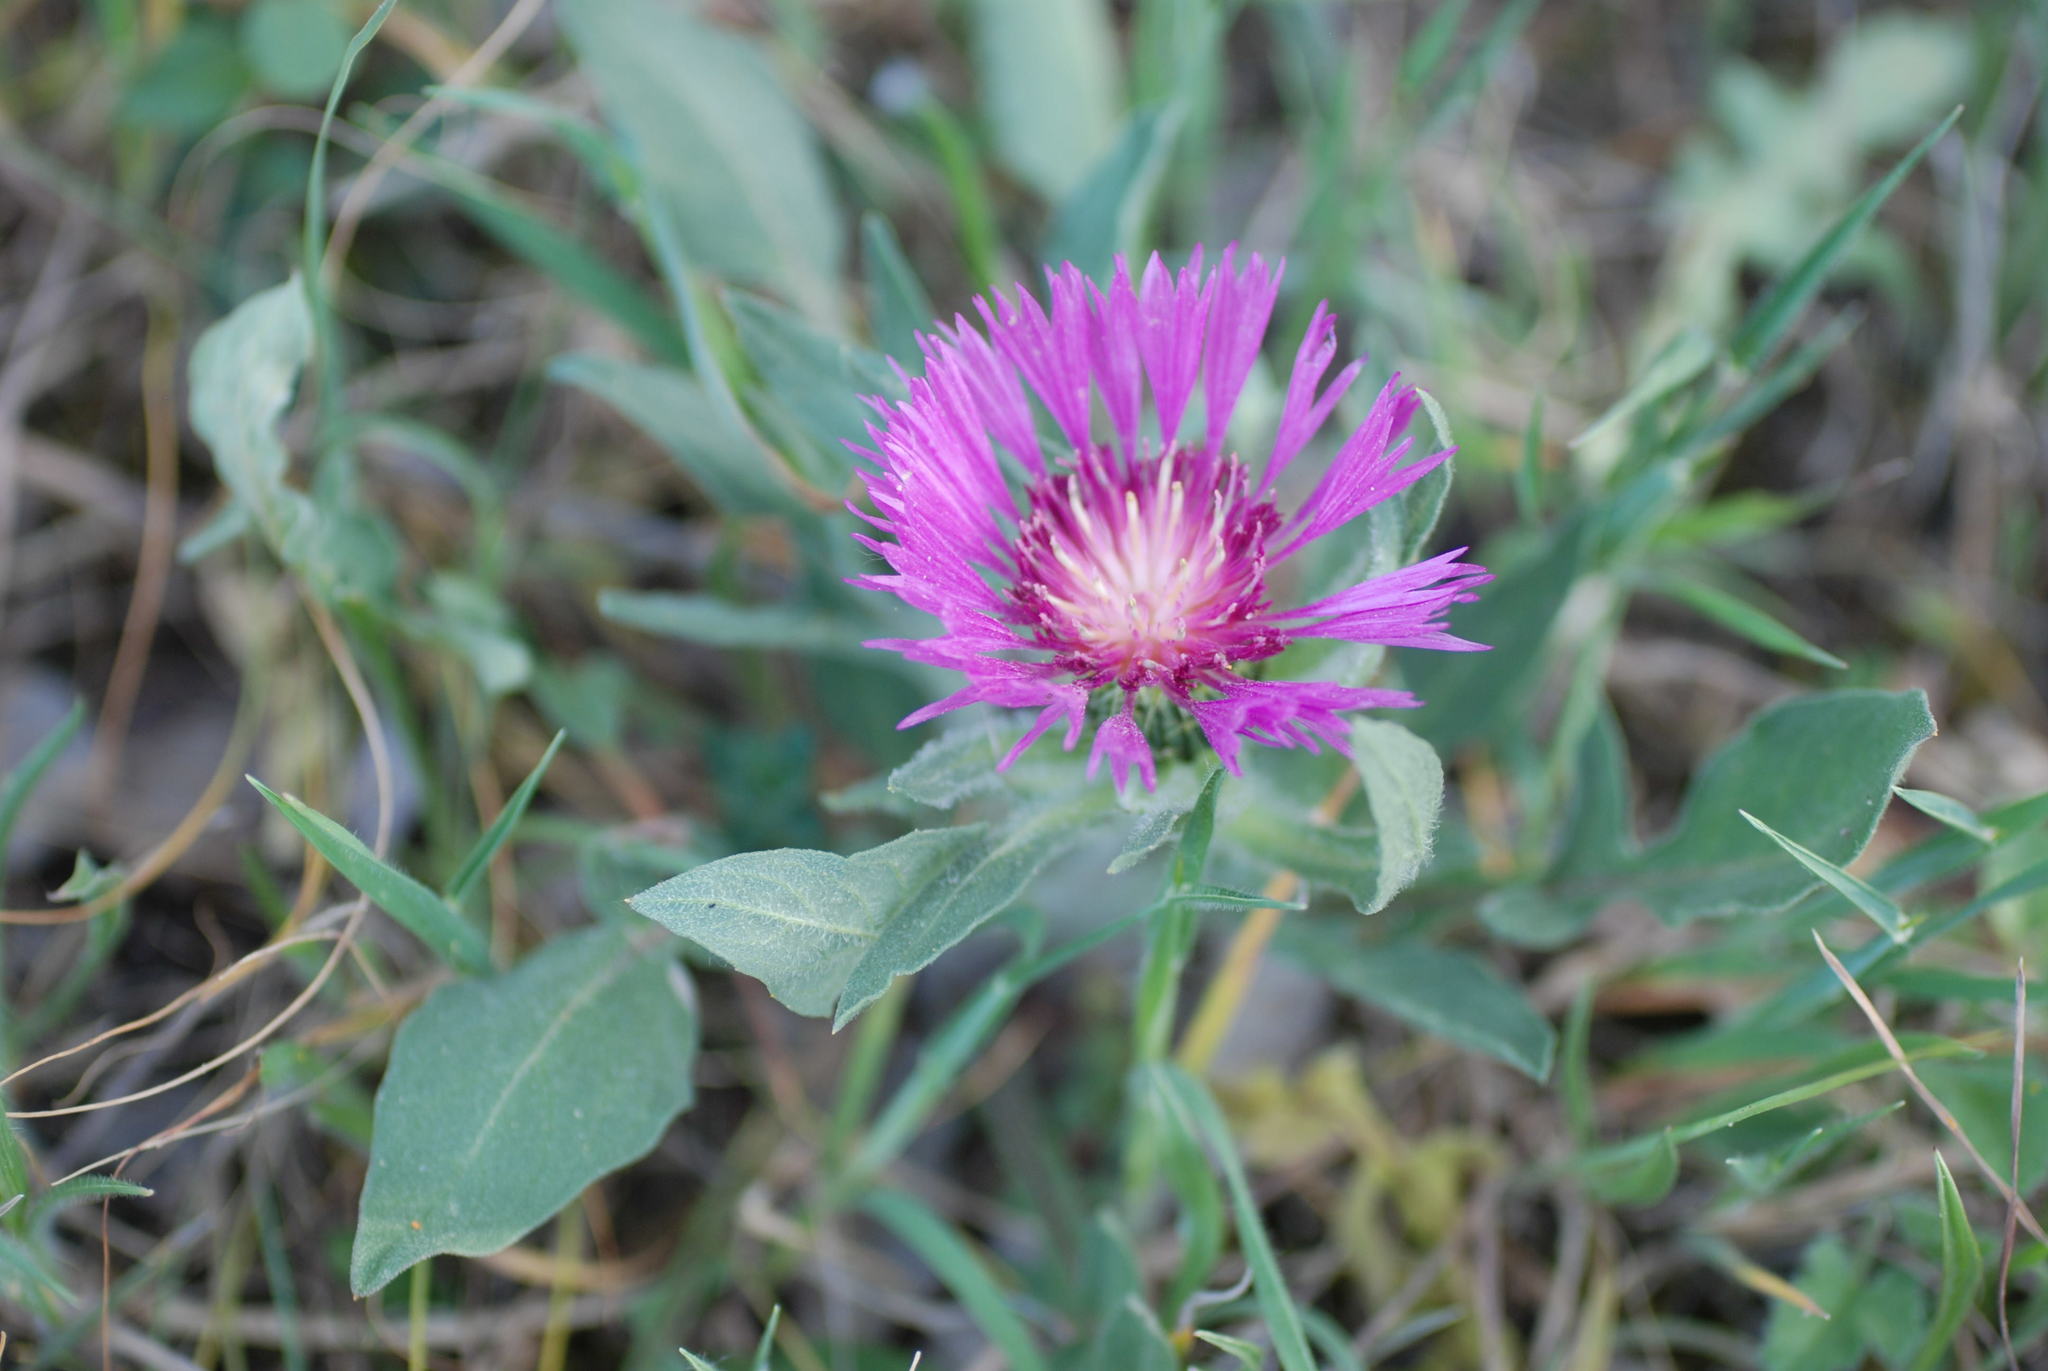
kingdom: Plantae
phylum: Tracheophyta
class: Magnoliopsida
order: Asterales
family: Asteraceae
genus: Centaurea
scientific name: Centaurea pullata
